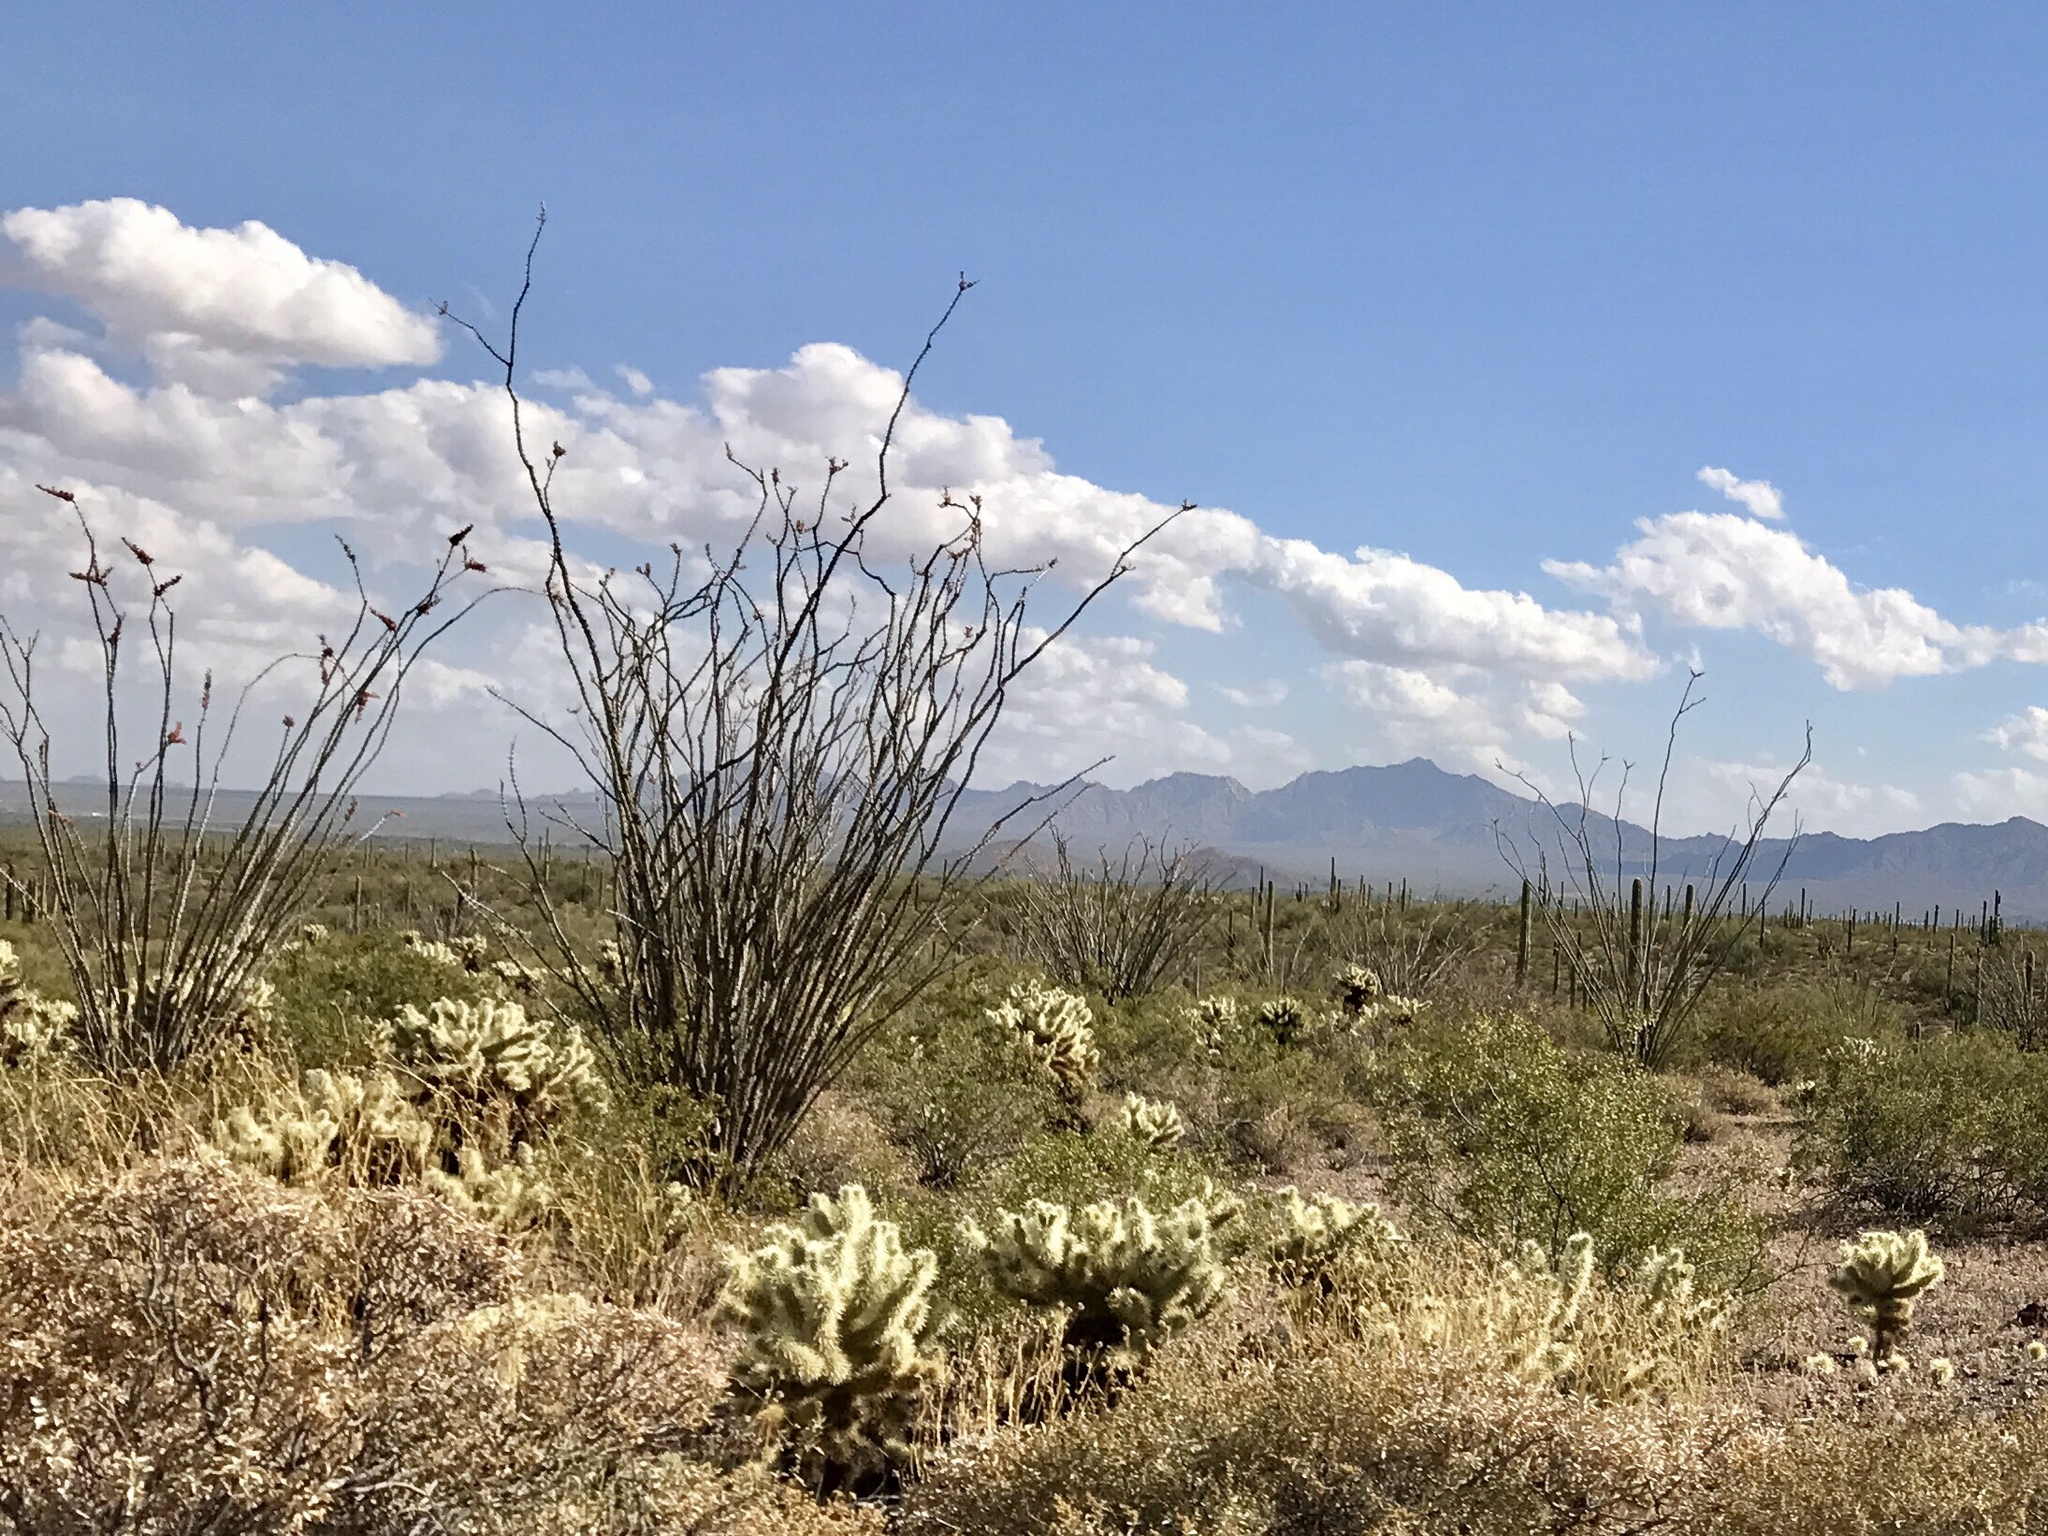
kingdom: Plantae
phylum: Tracheophyta
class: Magnoliopsida
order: Ericales
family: Fouquieriaceae
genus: Fouquieria
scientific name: Fouquieria splendens
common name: Vine-cactus
